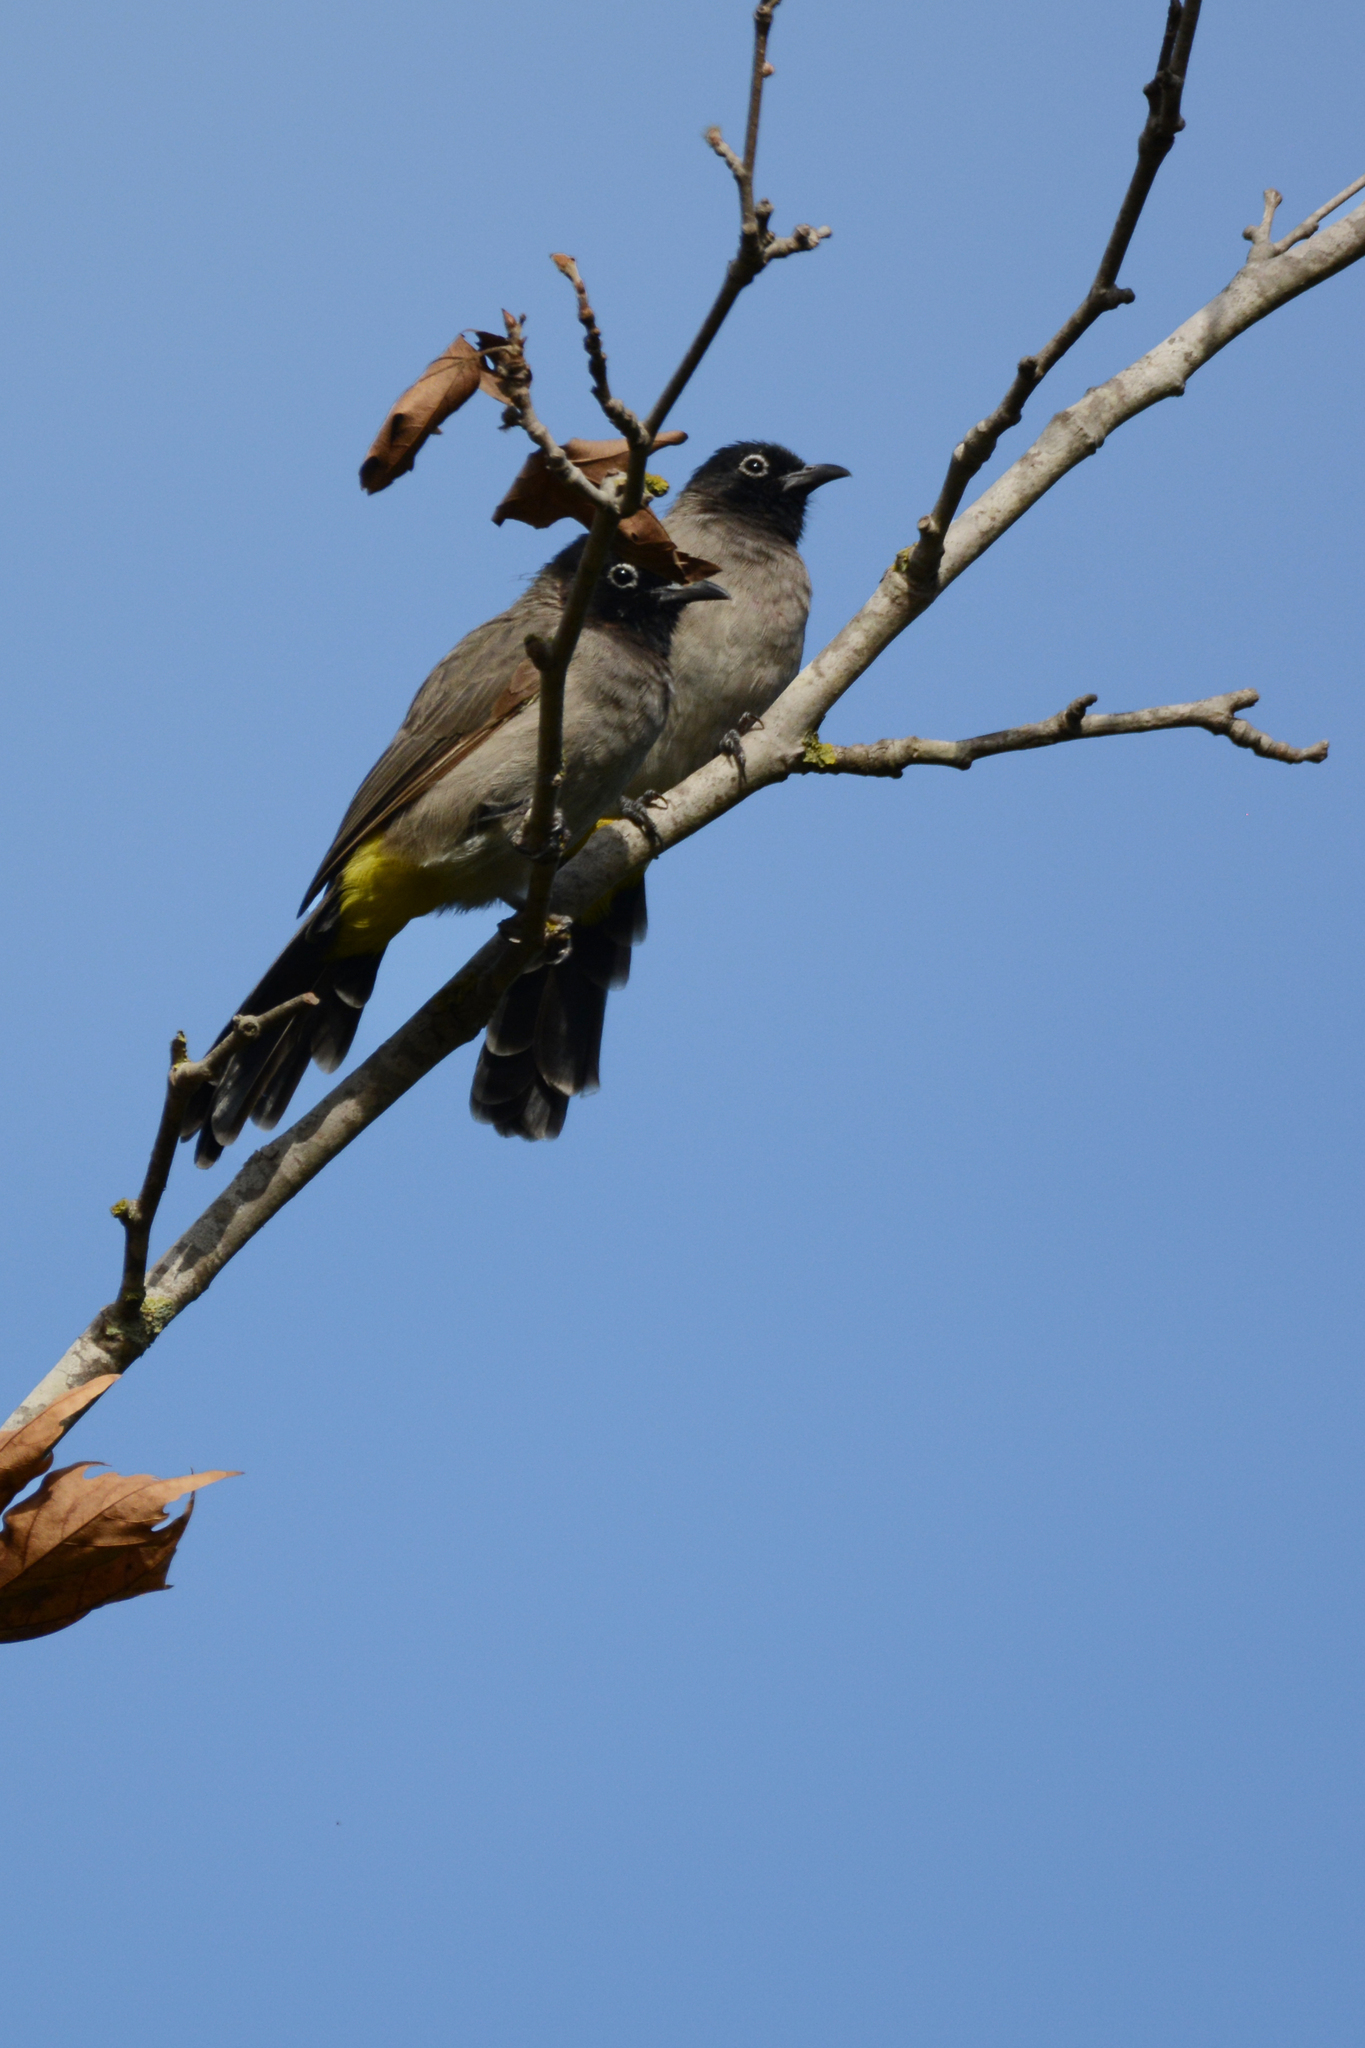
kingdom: Animalia
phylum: Chordata
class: Aves
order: Passeriformes
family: Pycnonotidae
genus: Pycnonotus
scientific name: Pycnonotus xanthopygos
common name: White-spectacled bulbul
